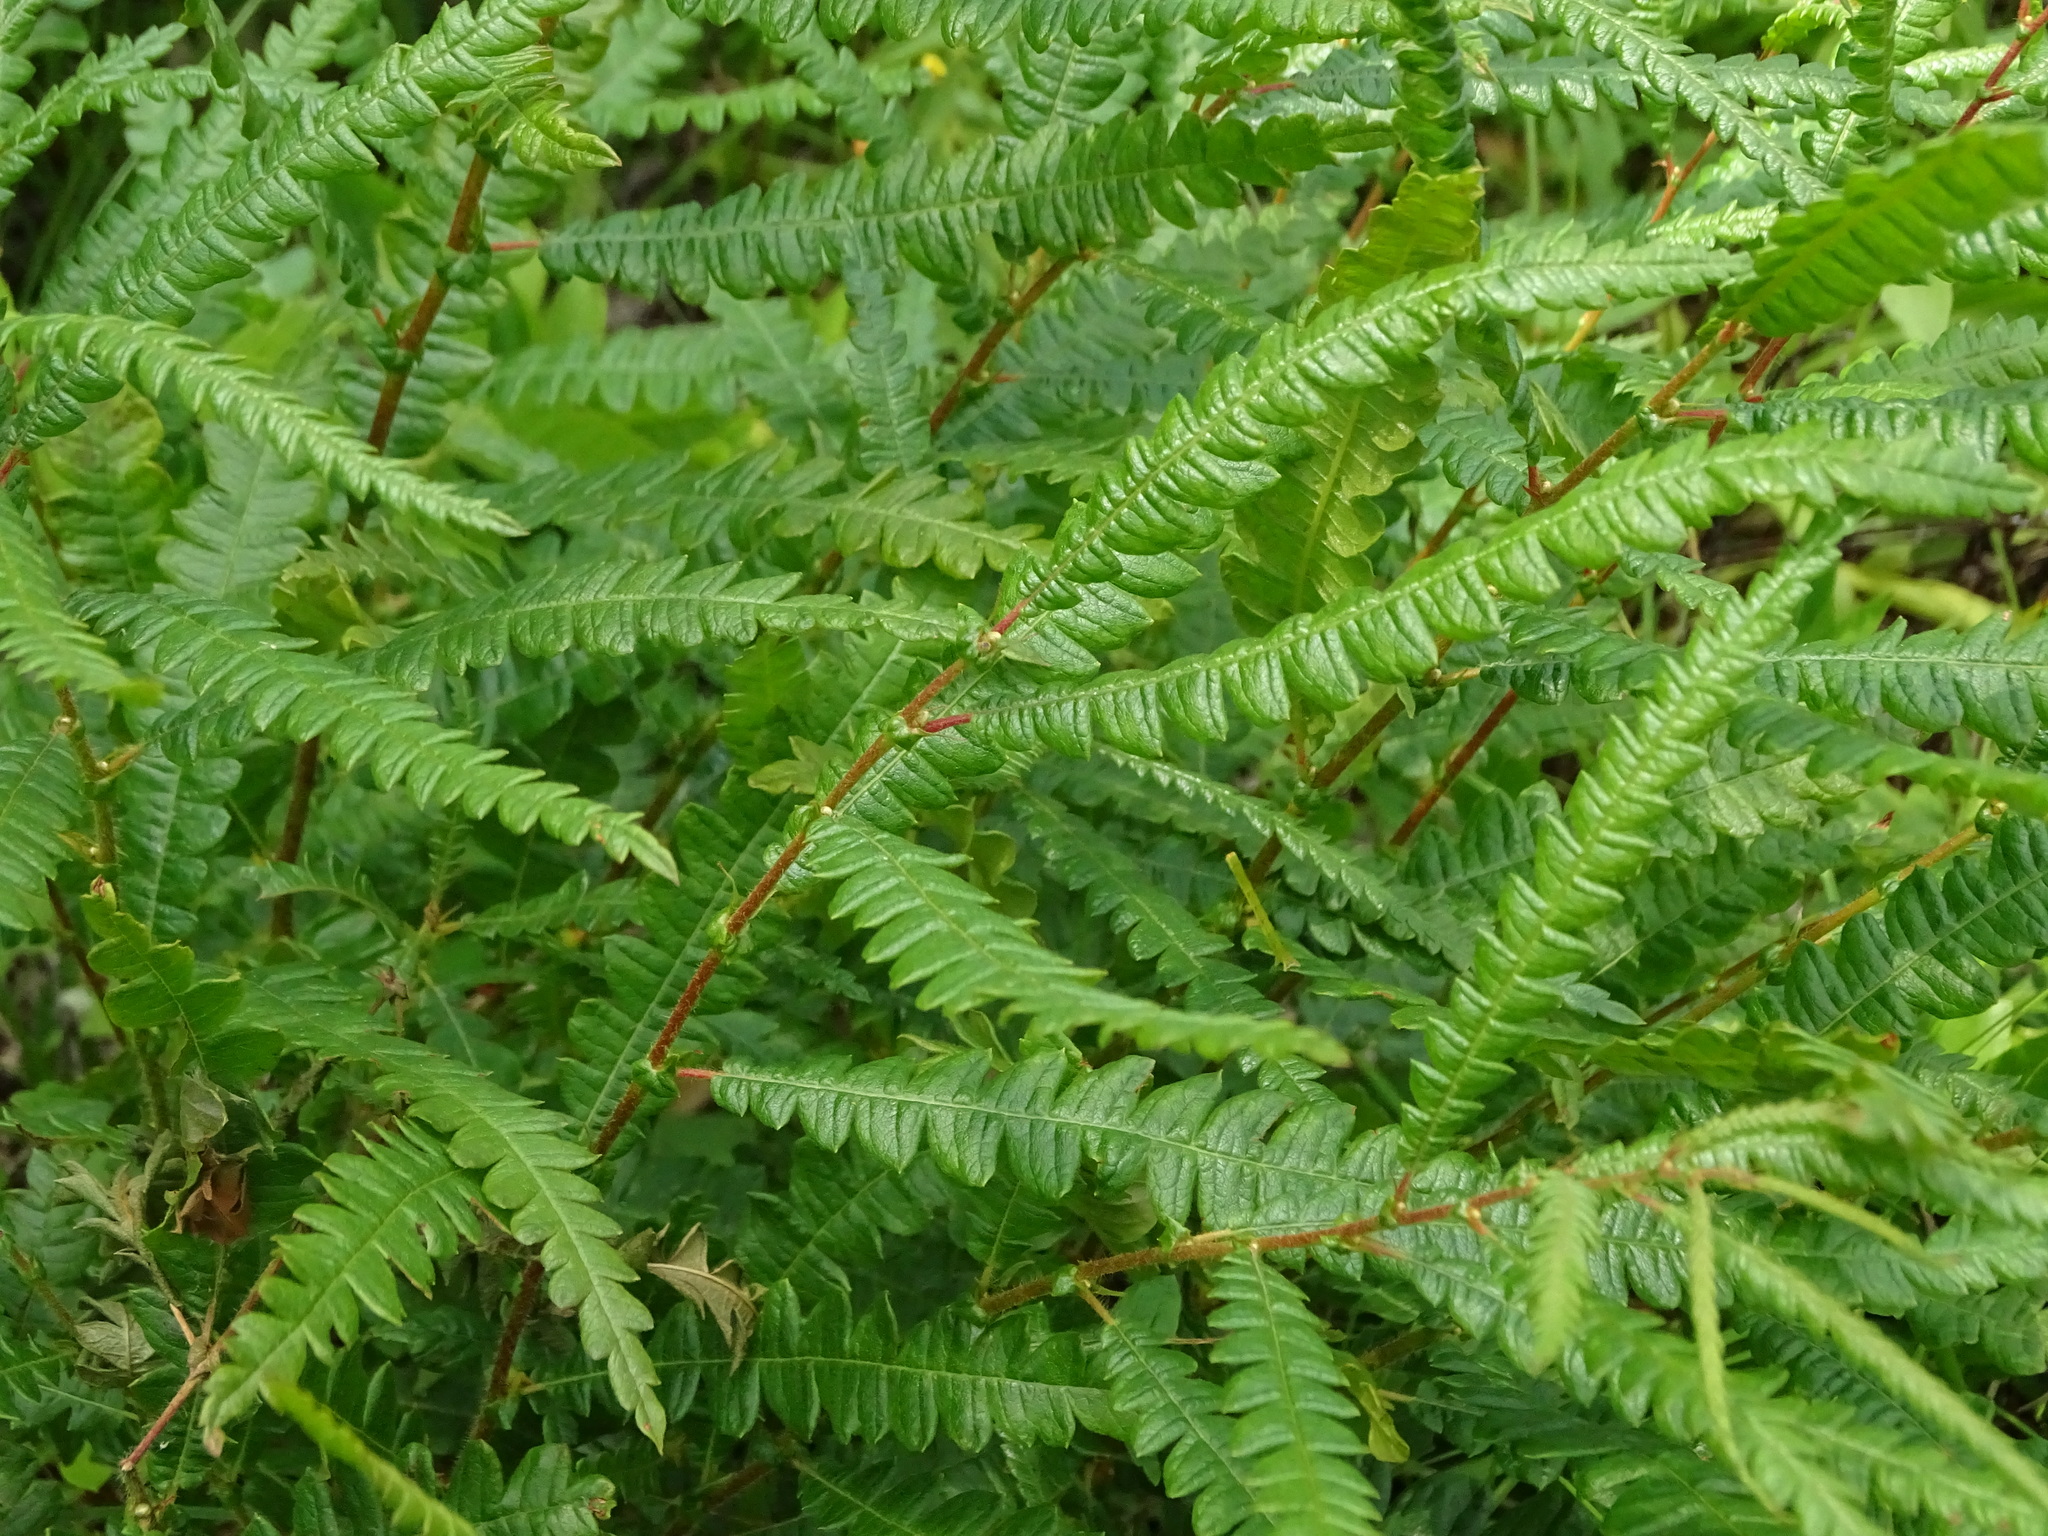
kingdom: Plantae
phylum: Tracheophyta
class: Magnoliopsida
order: Fagales
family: Myricaceae
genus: Comptonia
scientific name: Comptonia peregrina
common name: Sweet-fern
